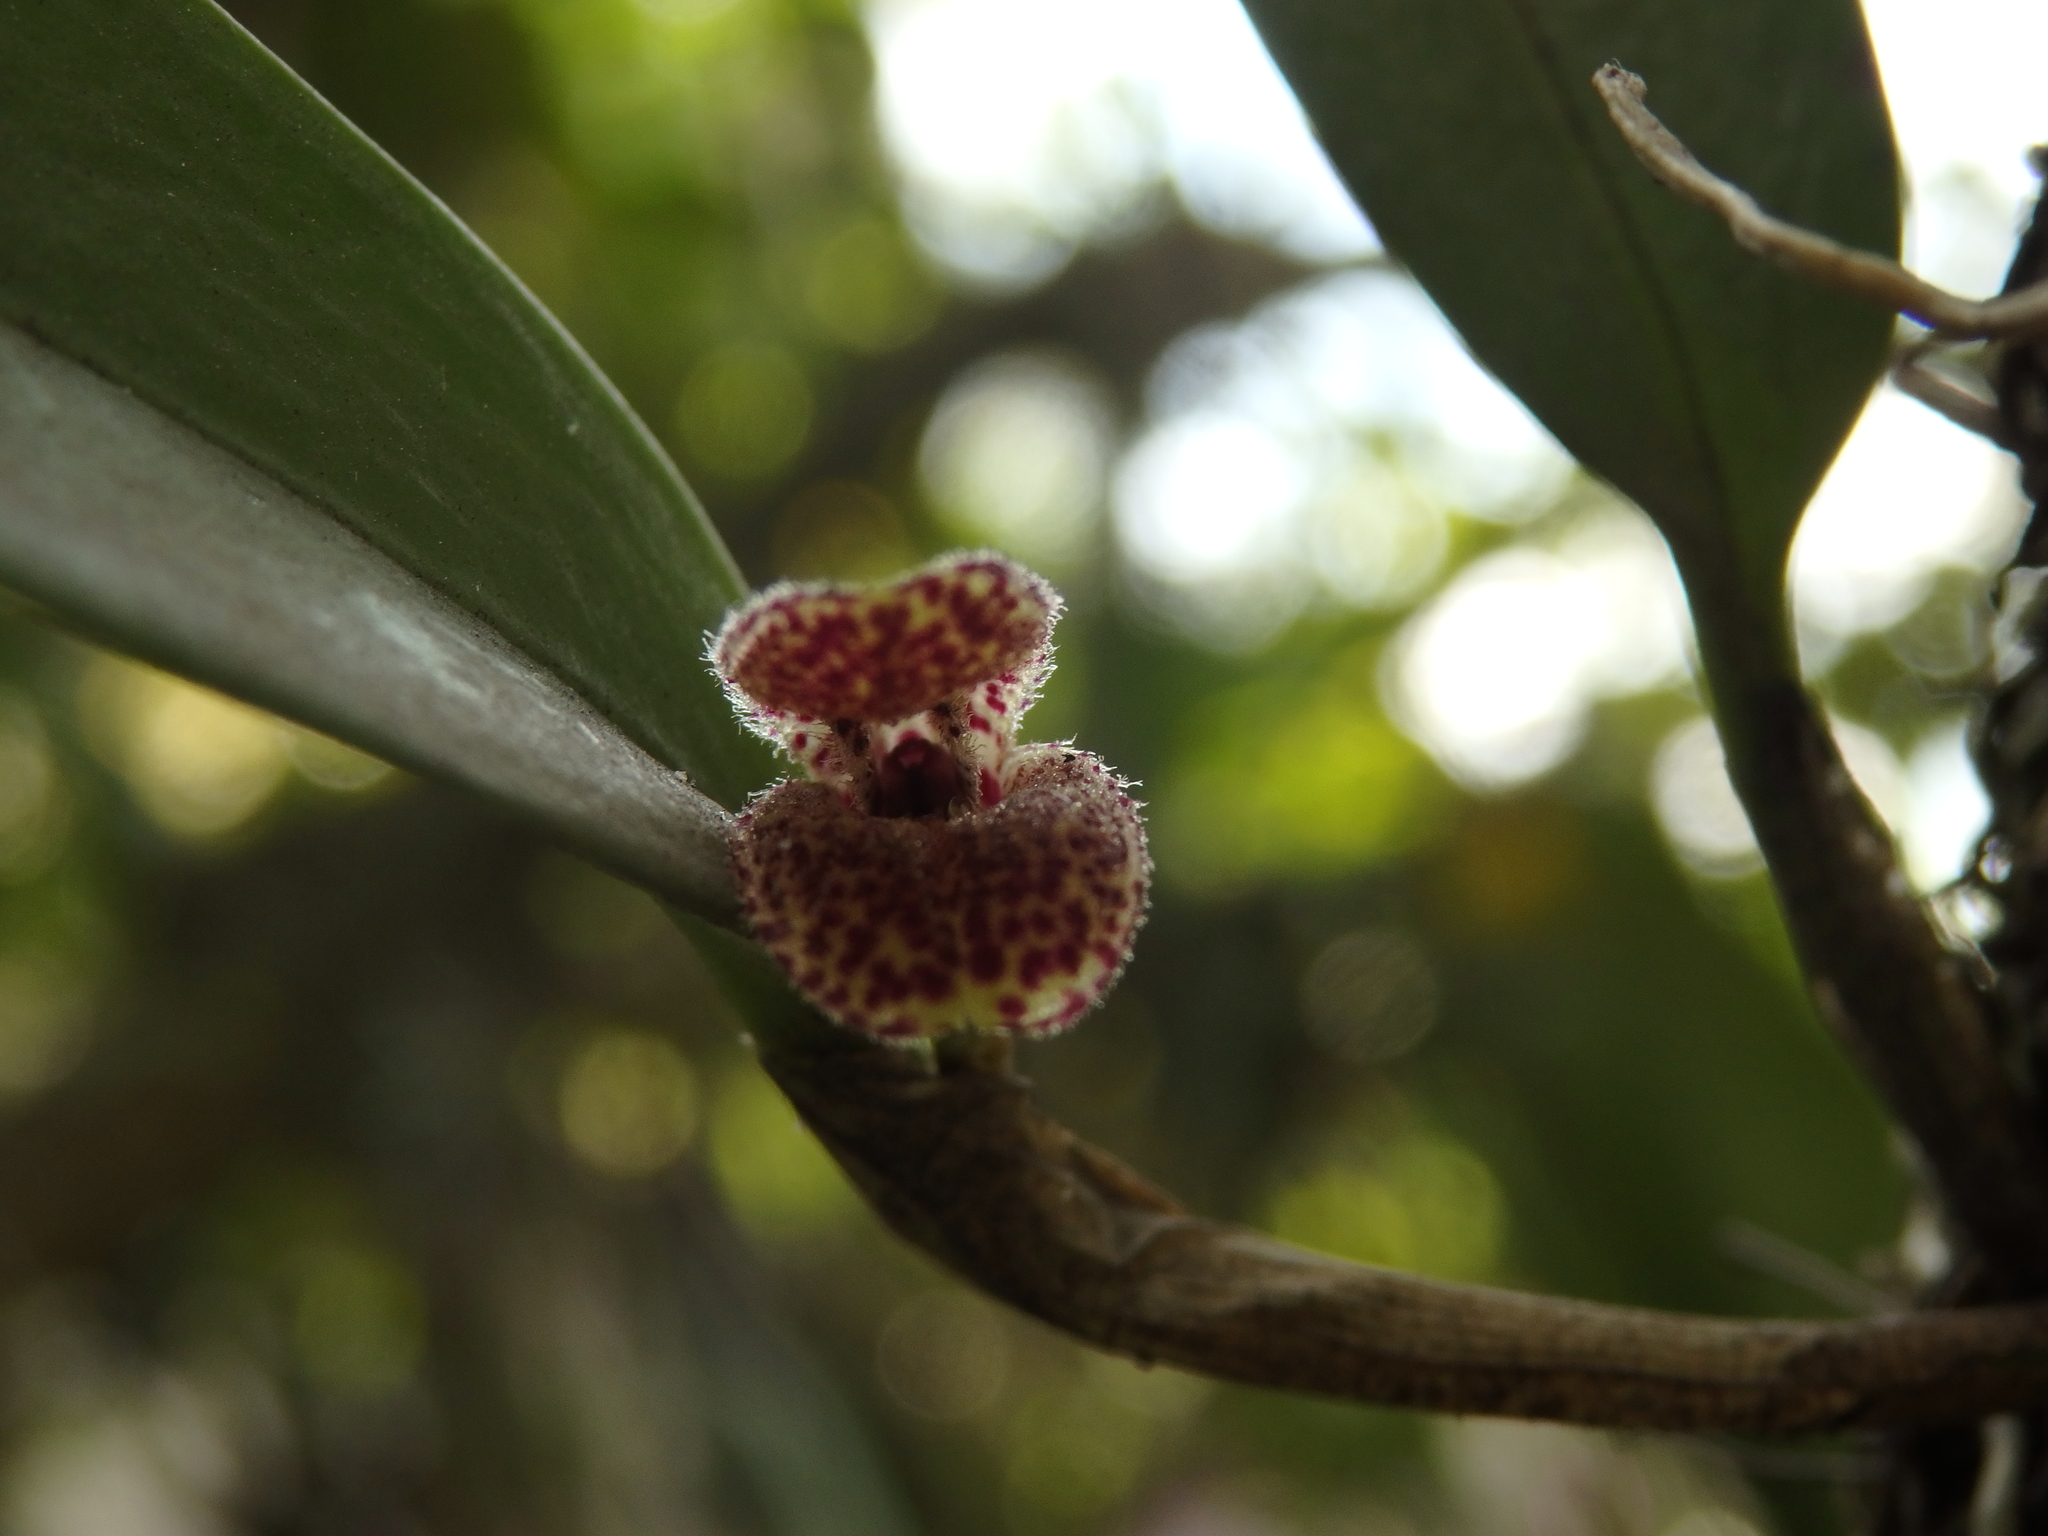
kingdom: Plantae
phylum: Tracheophyta
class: Liliopsida
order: Asparagales
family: Orchidaceae
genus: Restrepiella
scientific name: Restrepiella ophiocephala
